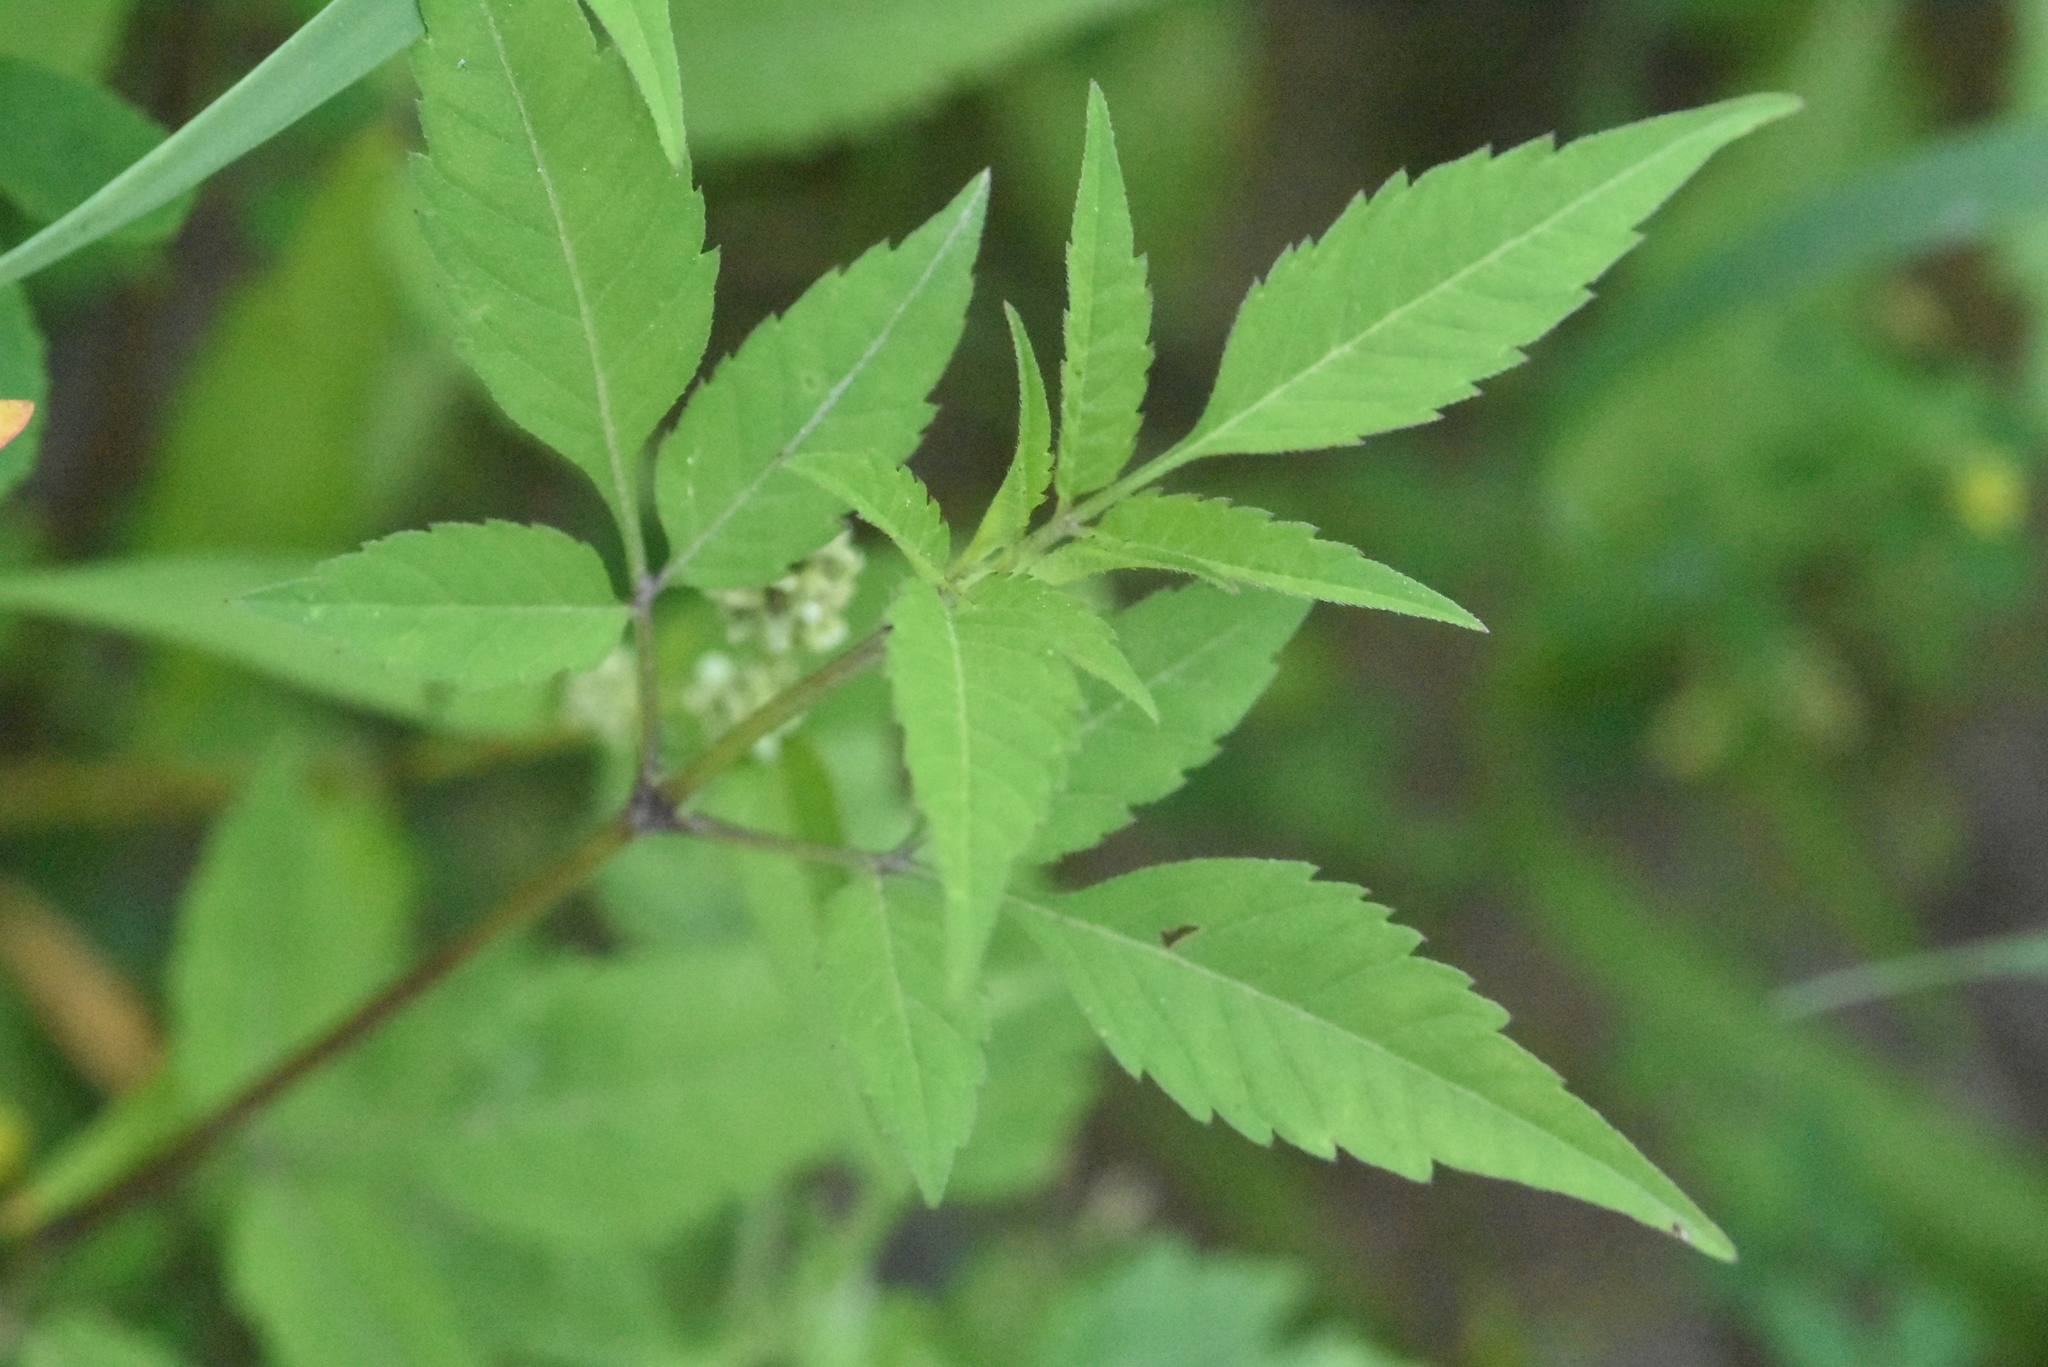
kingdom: Plantae
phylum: Tracheophyta
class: Magnoliopsida
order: Asterales
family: Asteraceae
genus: Bidens
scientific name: Bidens frondosa
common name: Beggarticks
